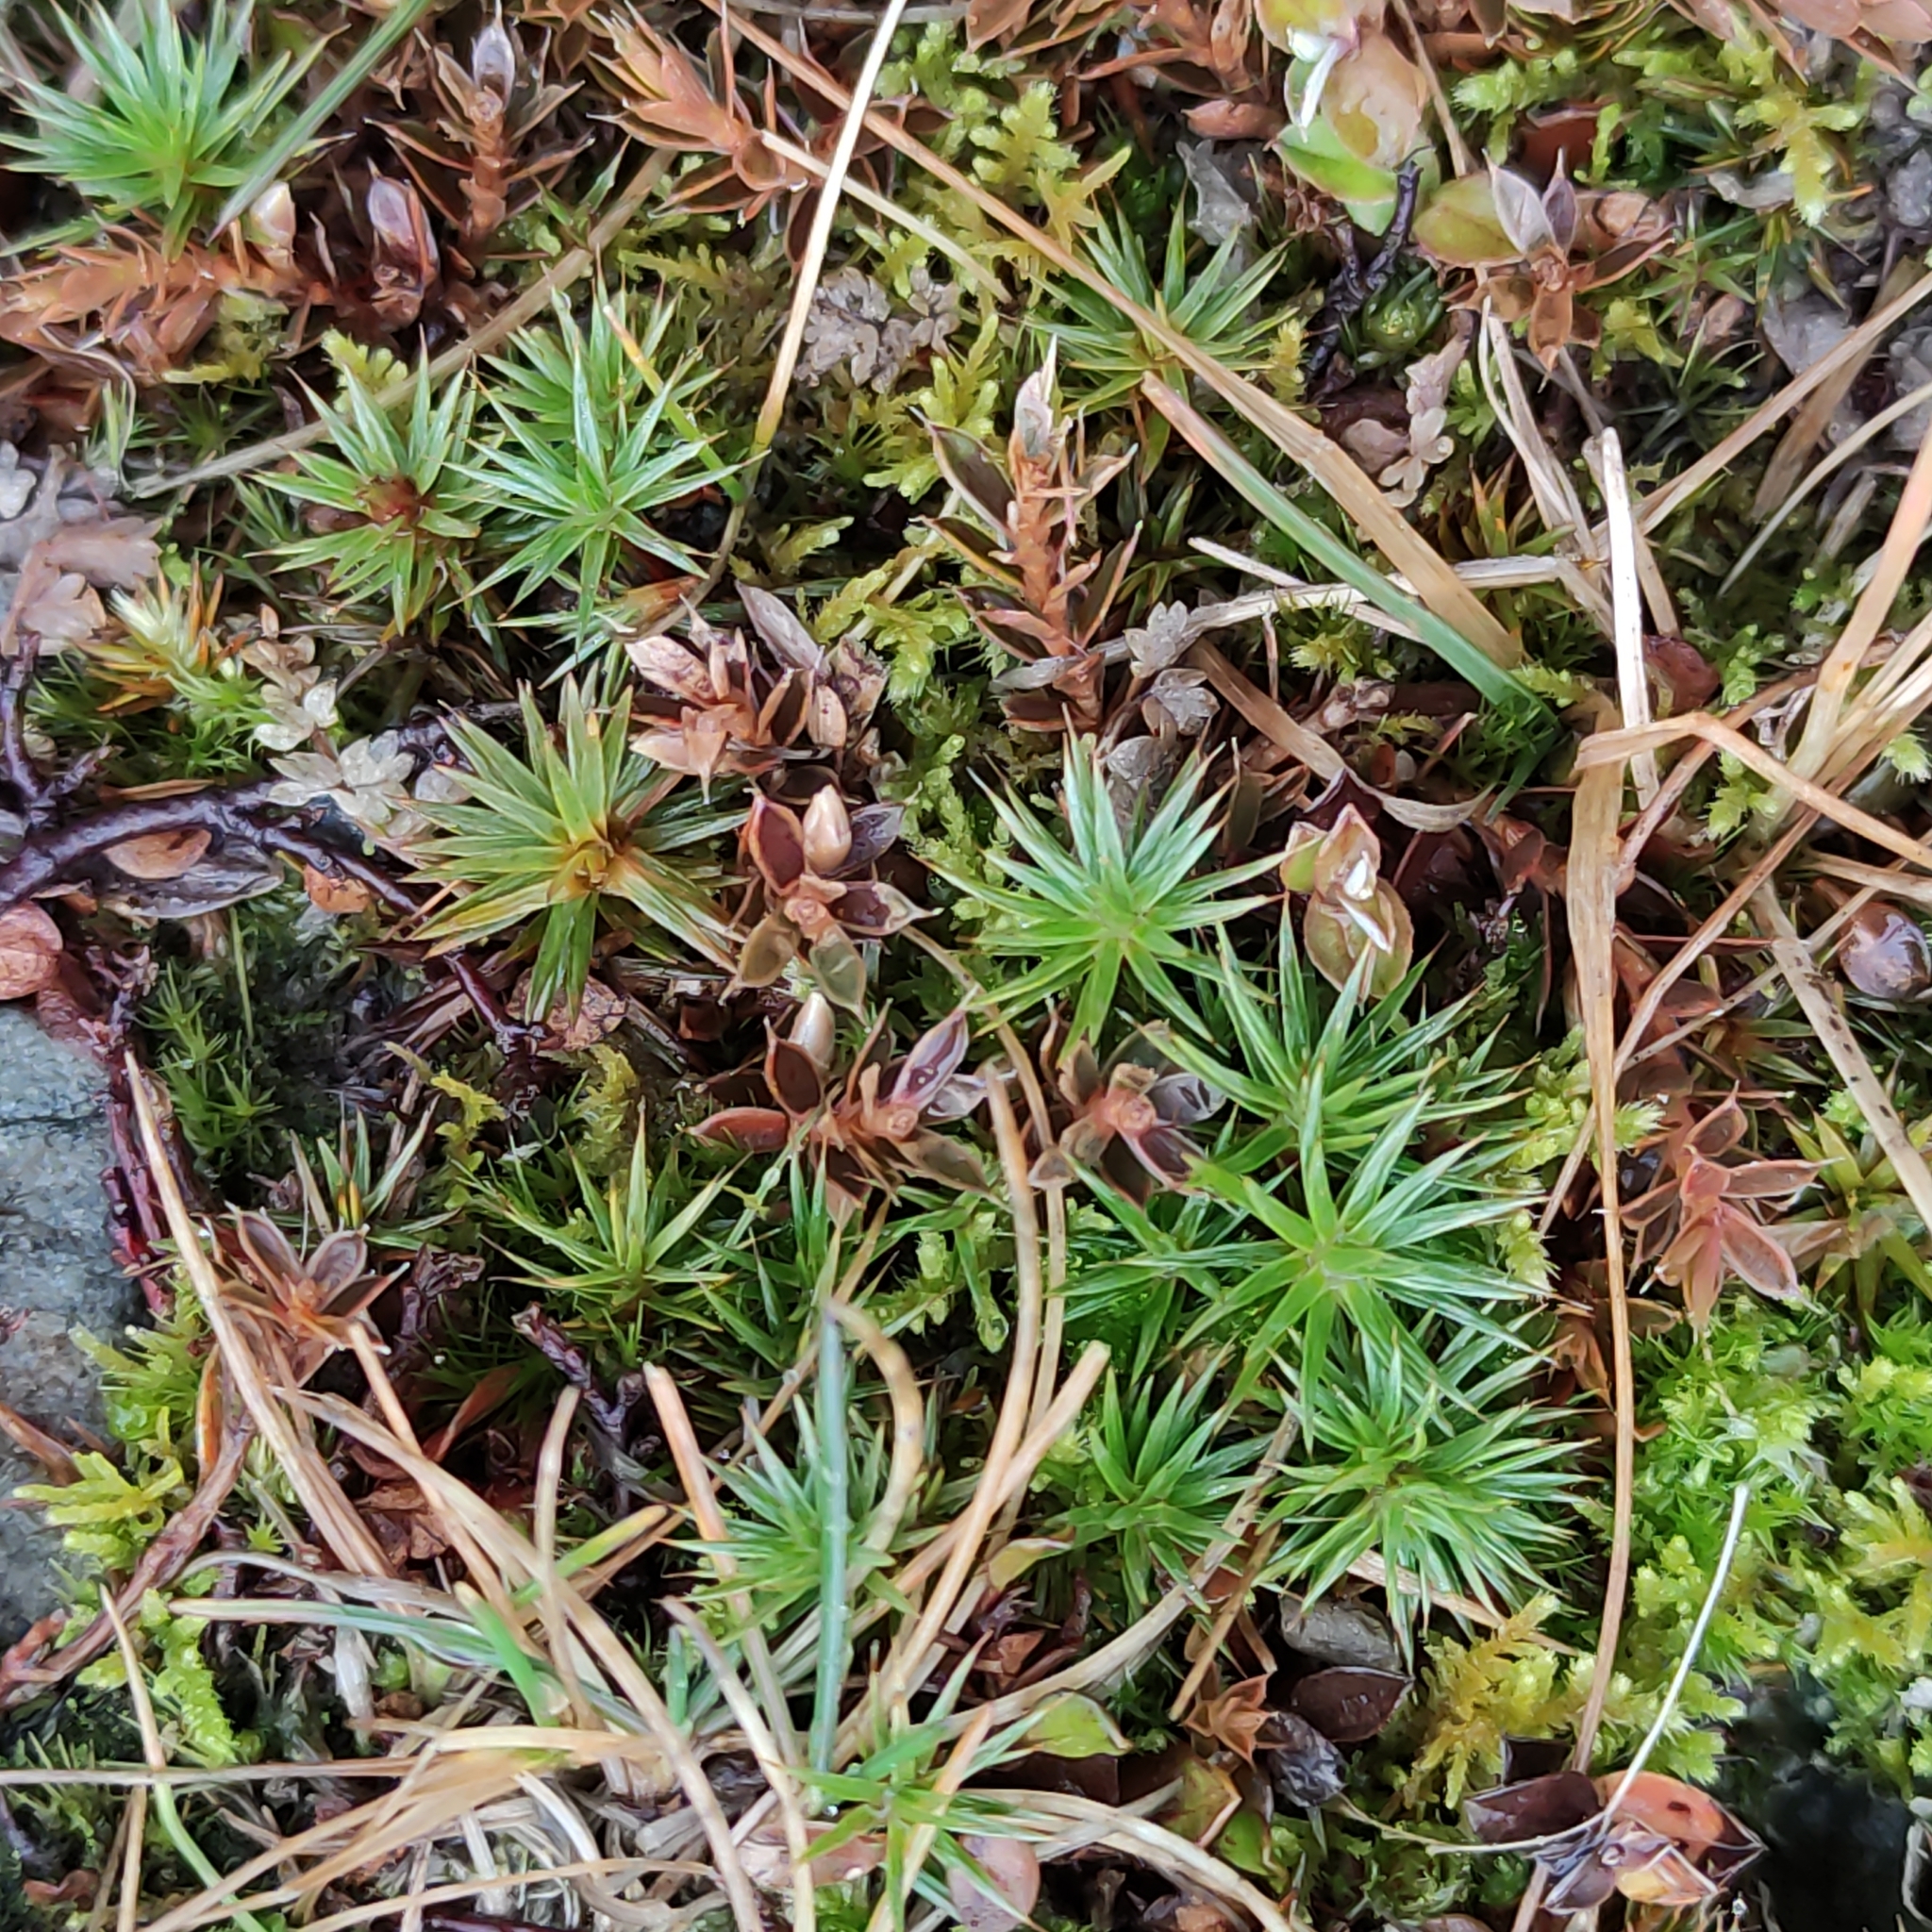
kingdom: Plantae
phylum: Bryophyta
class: Polytrichopsida
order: Polytrichales
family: Polytrichaceae
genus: Polytrichum
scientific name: Polytrichum juniperinum
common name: Juniper haircap moss
